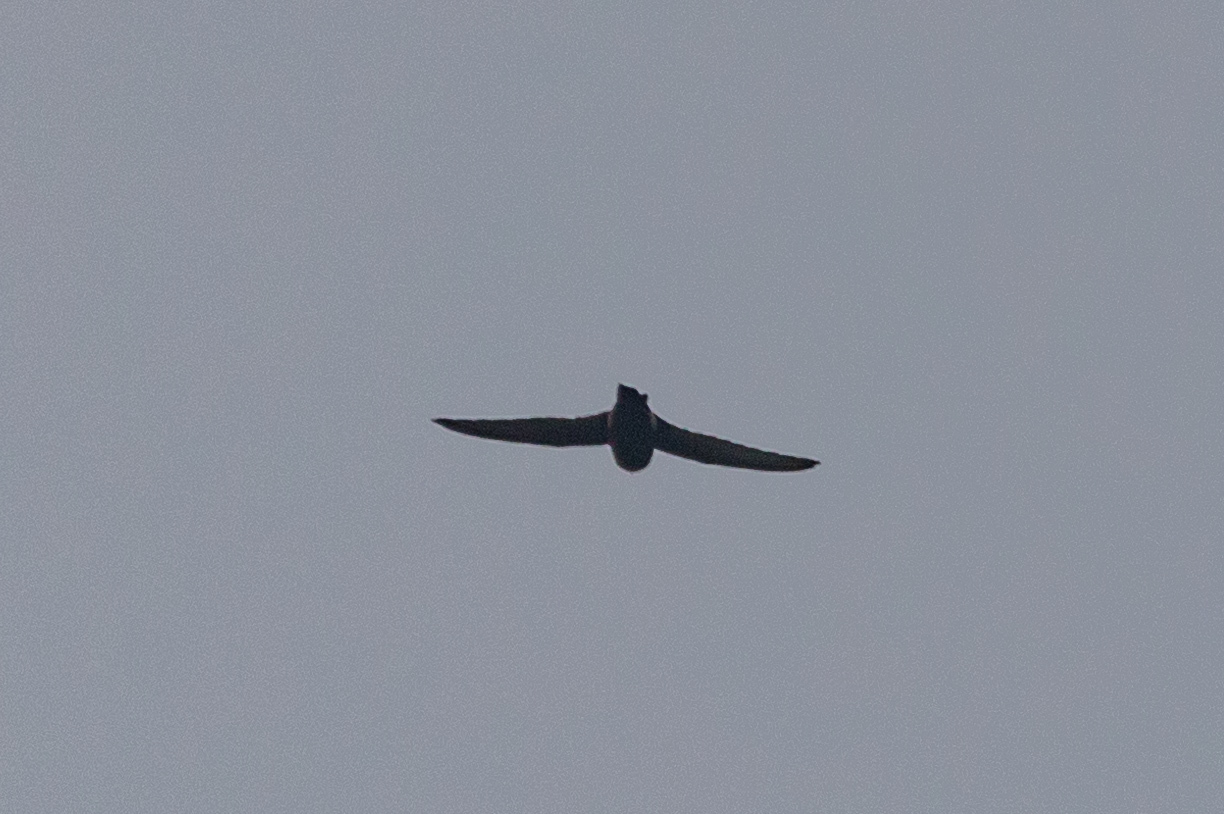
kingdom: Animalia
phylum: Chordata
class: Aves
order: Apodiformes
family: Apodidae
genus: Apus
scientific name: Apus nipalensis
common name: House swift
